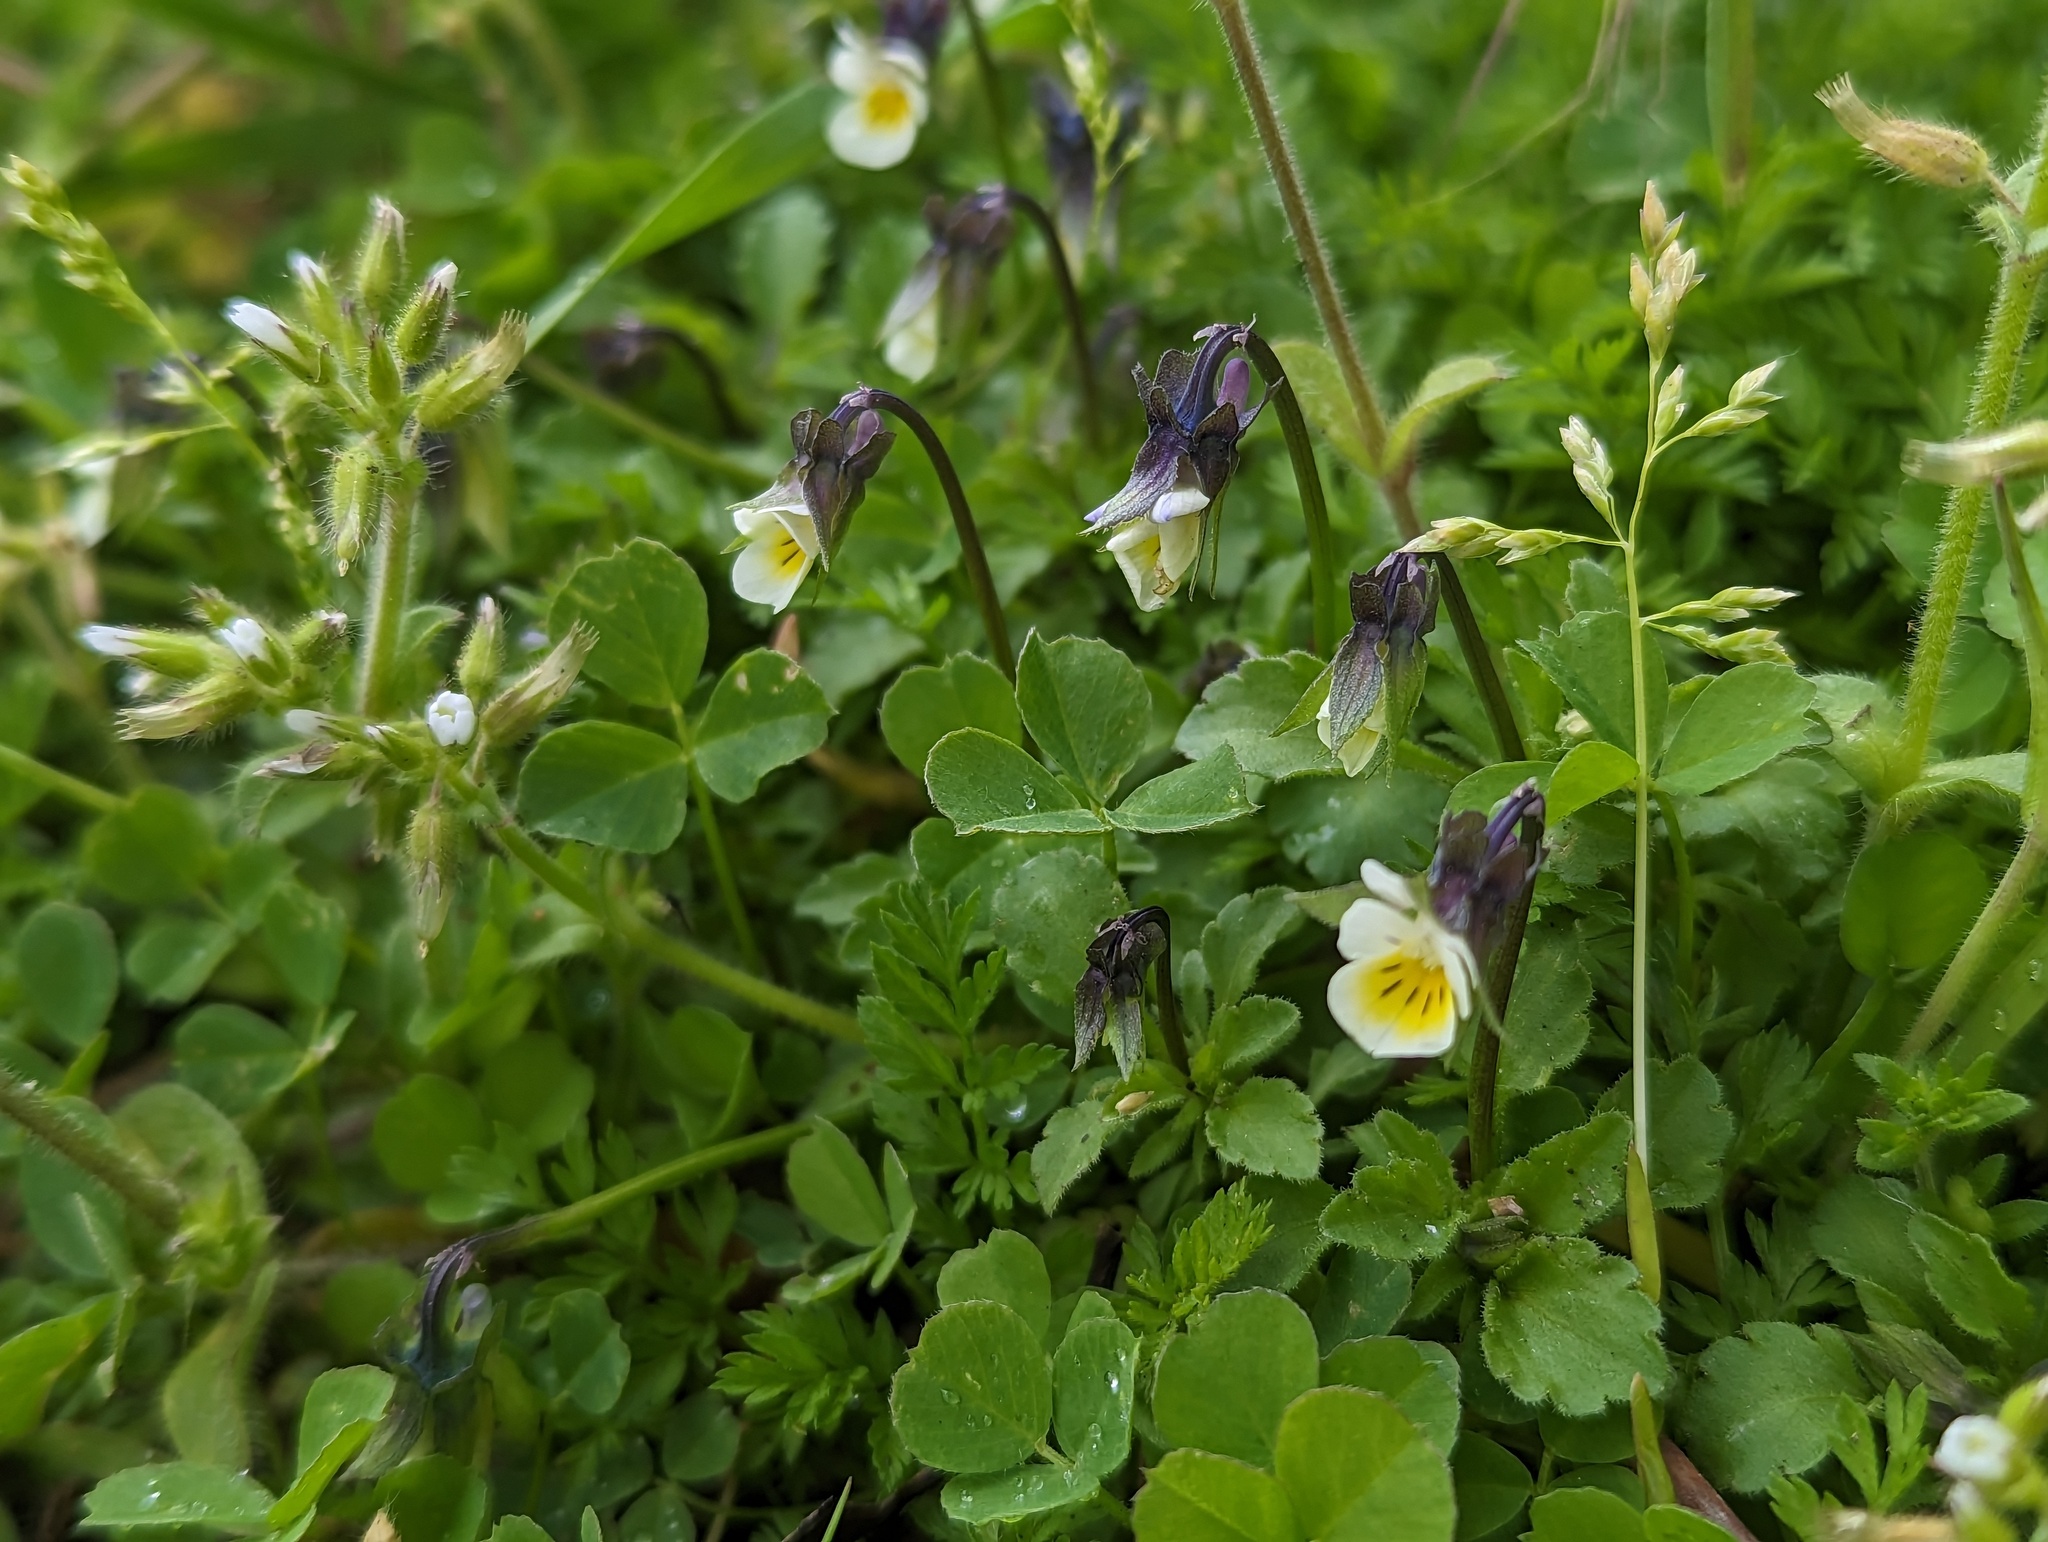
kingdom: Plantae
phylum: Tracheophyta
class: Magnoliopsida
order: Malpighiales
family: Violaceae
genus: Viola
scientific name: Viola arvensis
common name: Field pansy
